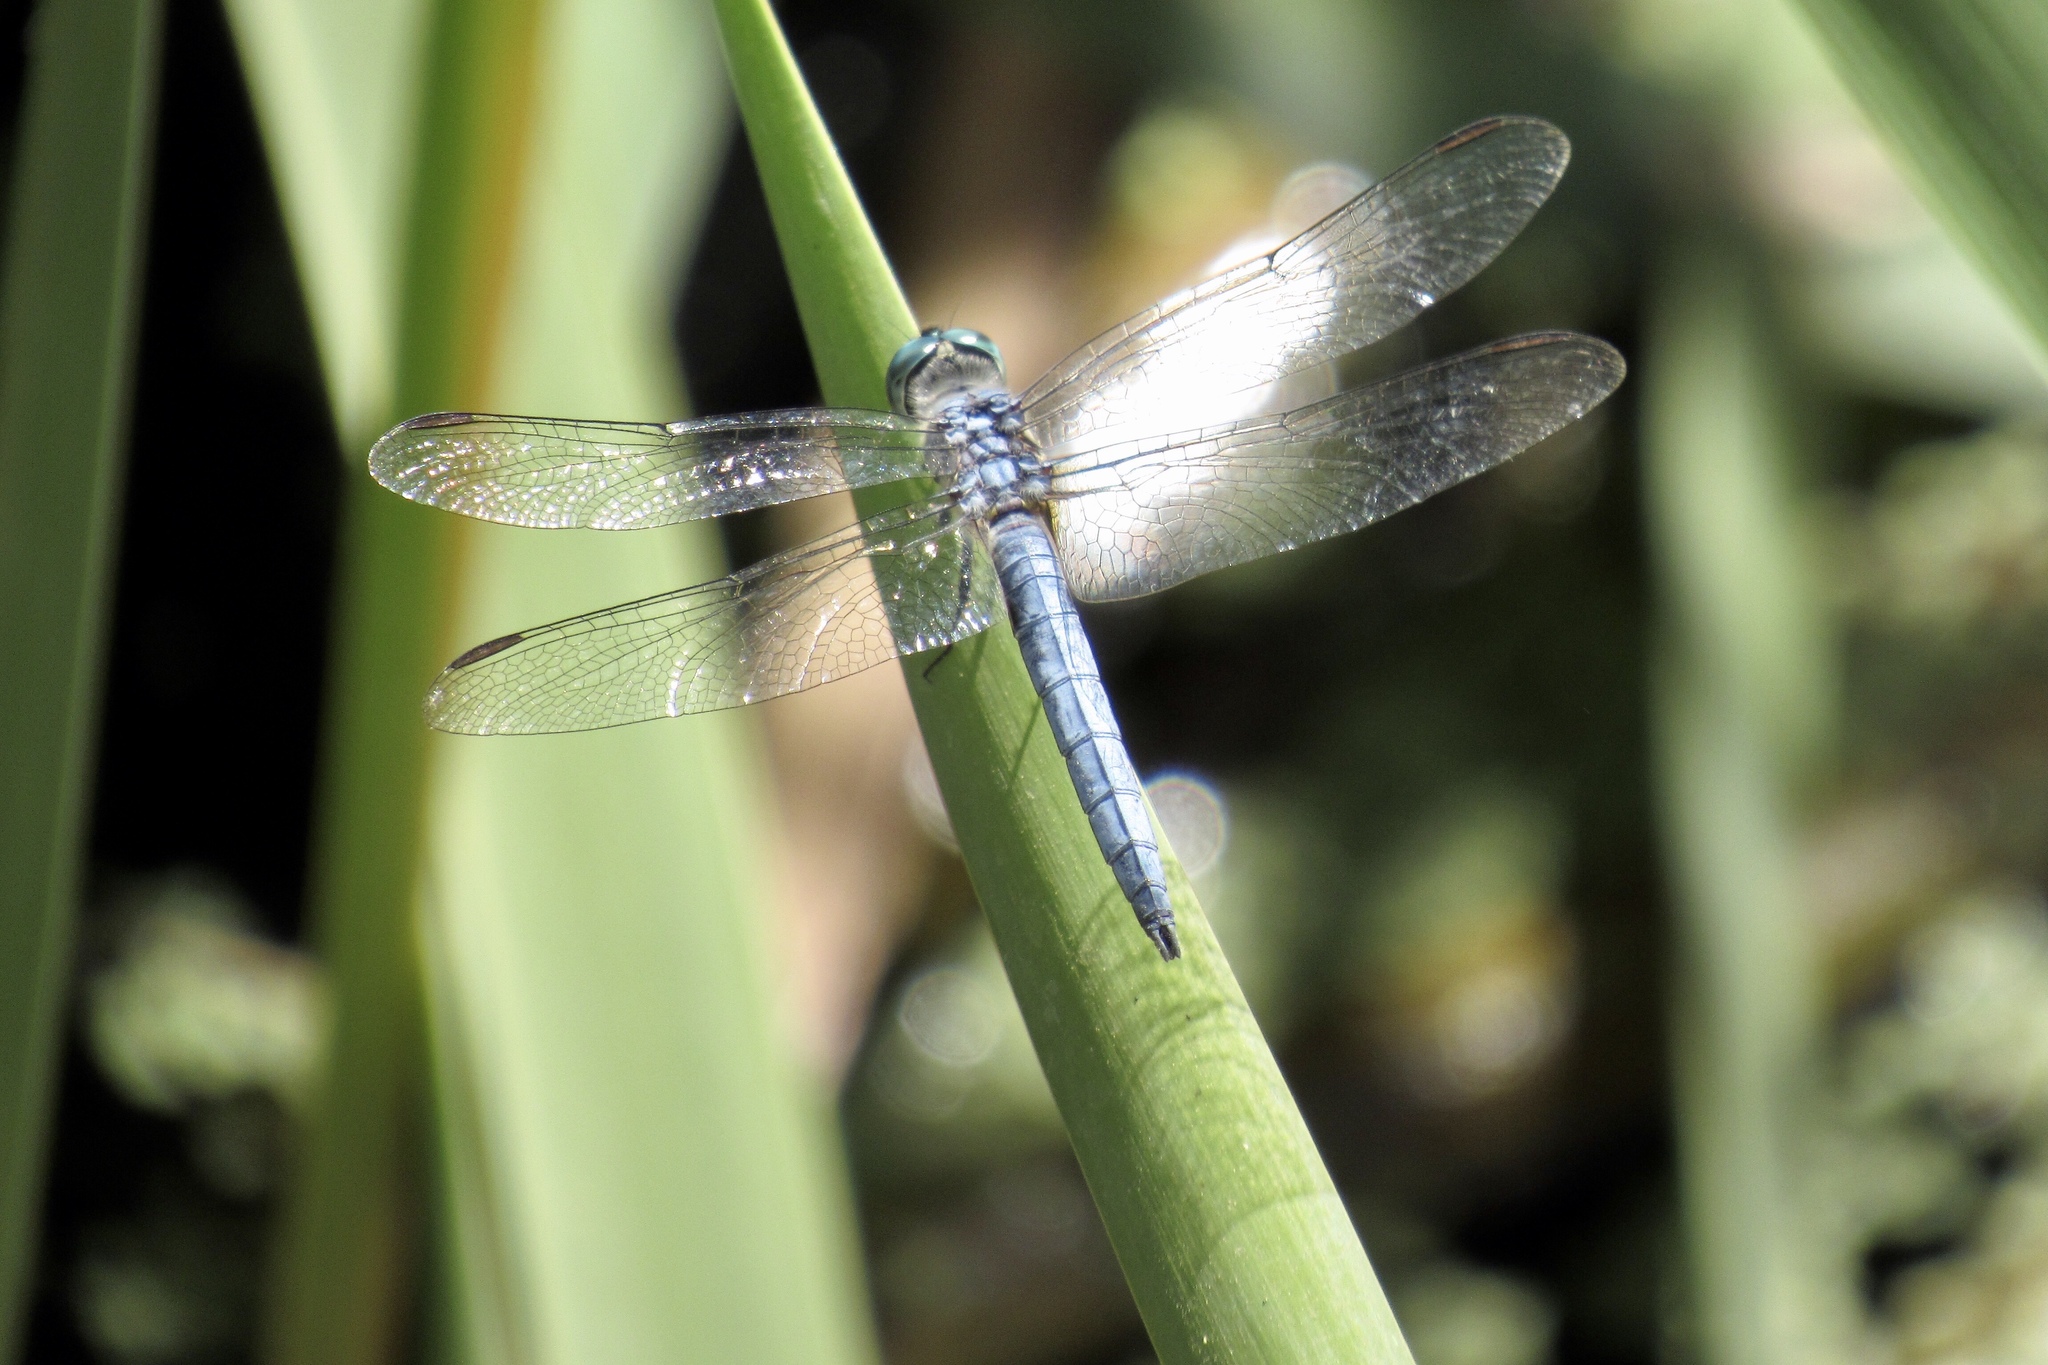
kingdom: Animalia
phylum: Arthropoda
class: Insecta
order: Odonata
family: Libellulidae
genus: Pachydiplax
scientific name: Pachydiplax longipennis
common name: Blue dasher
